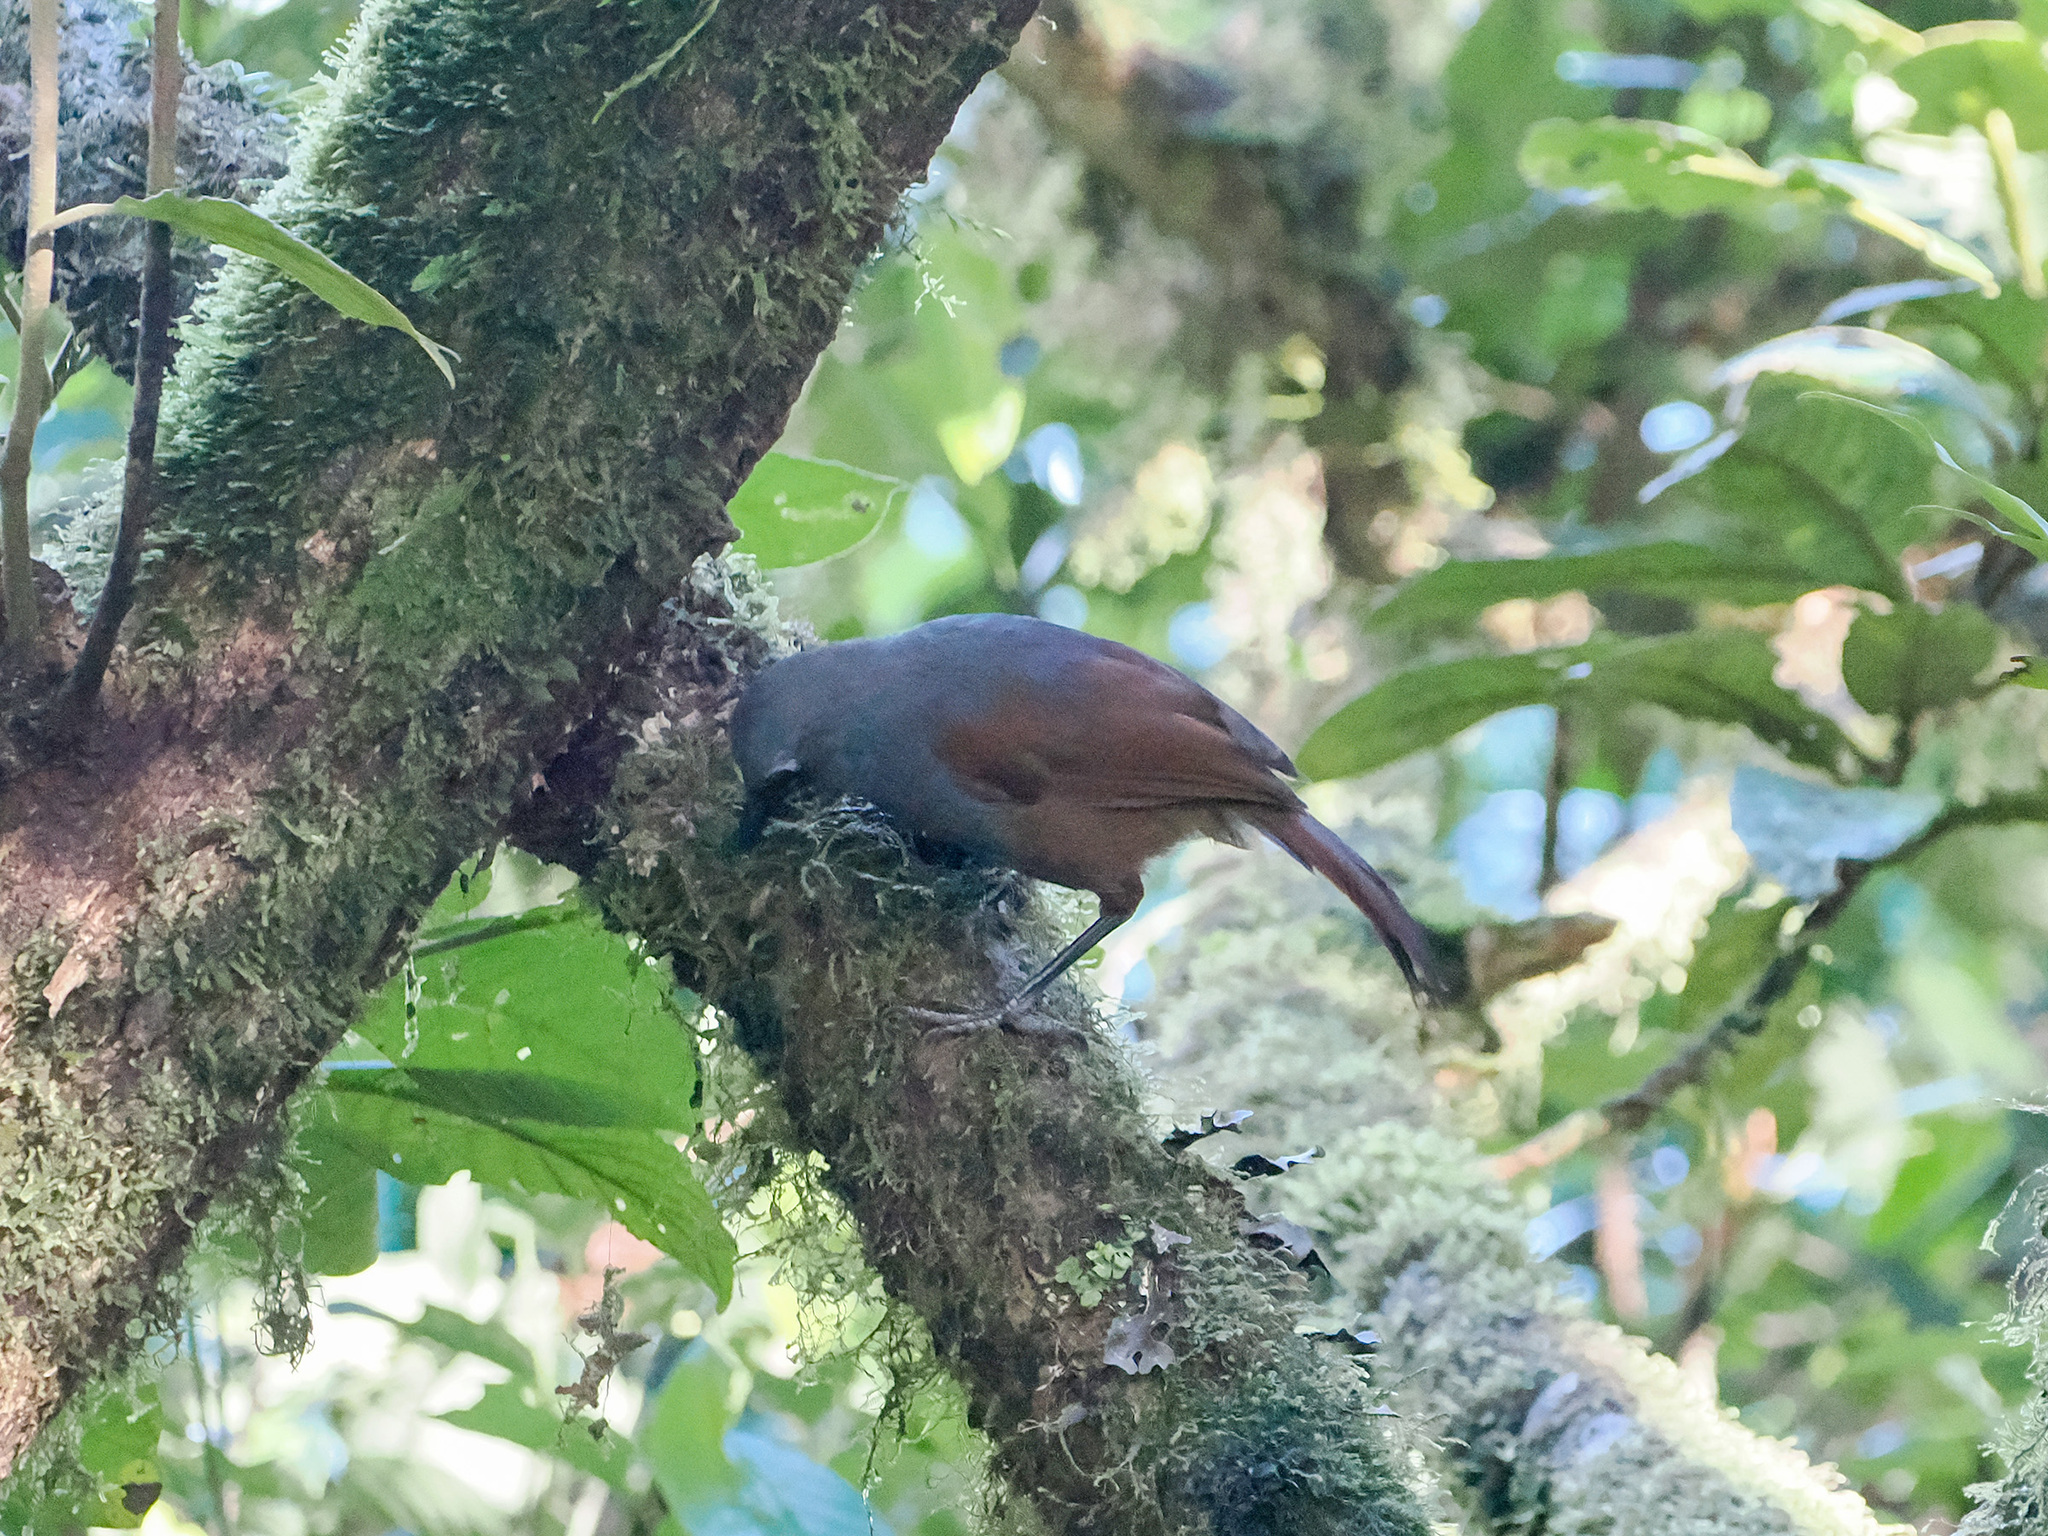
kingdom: Animalia
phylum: Chordata
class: Aves
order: Passeriformes
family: Leiothrichidae
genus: Garrulax
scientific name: Garrulax palliatus
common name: Sunda laughingthrush
